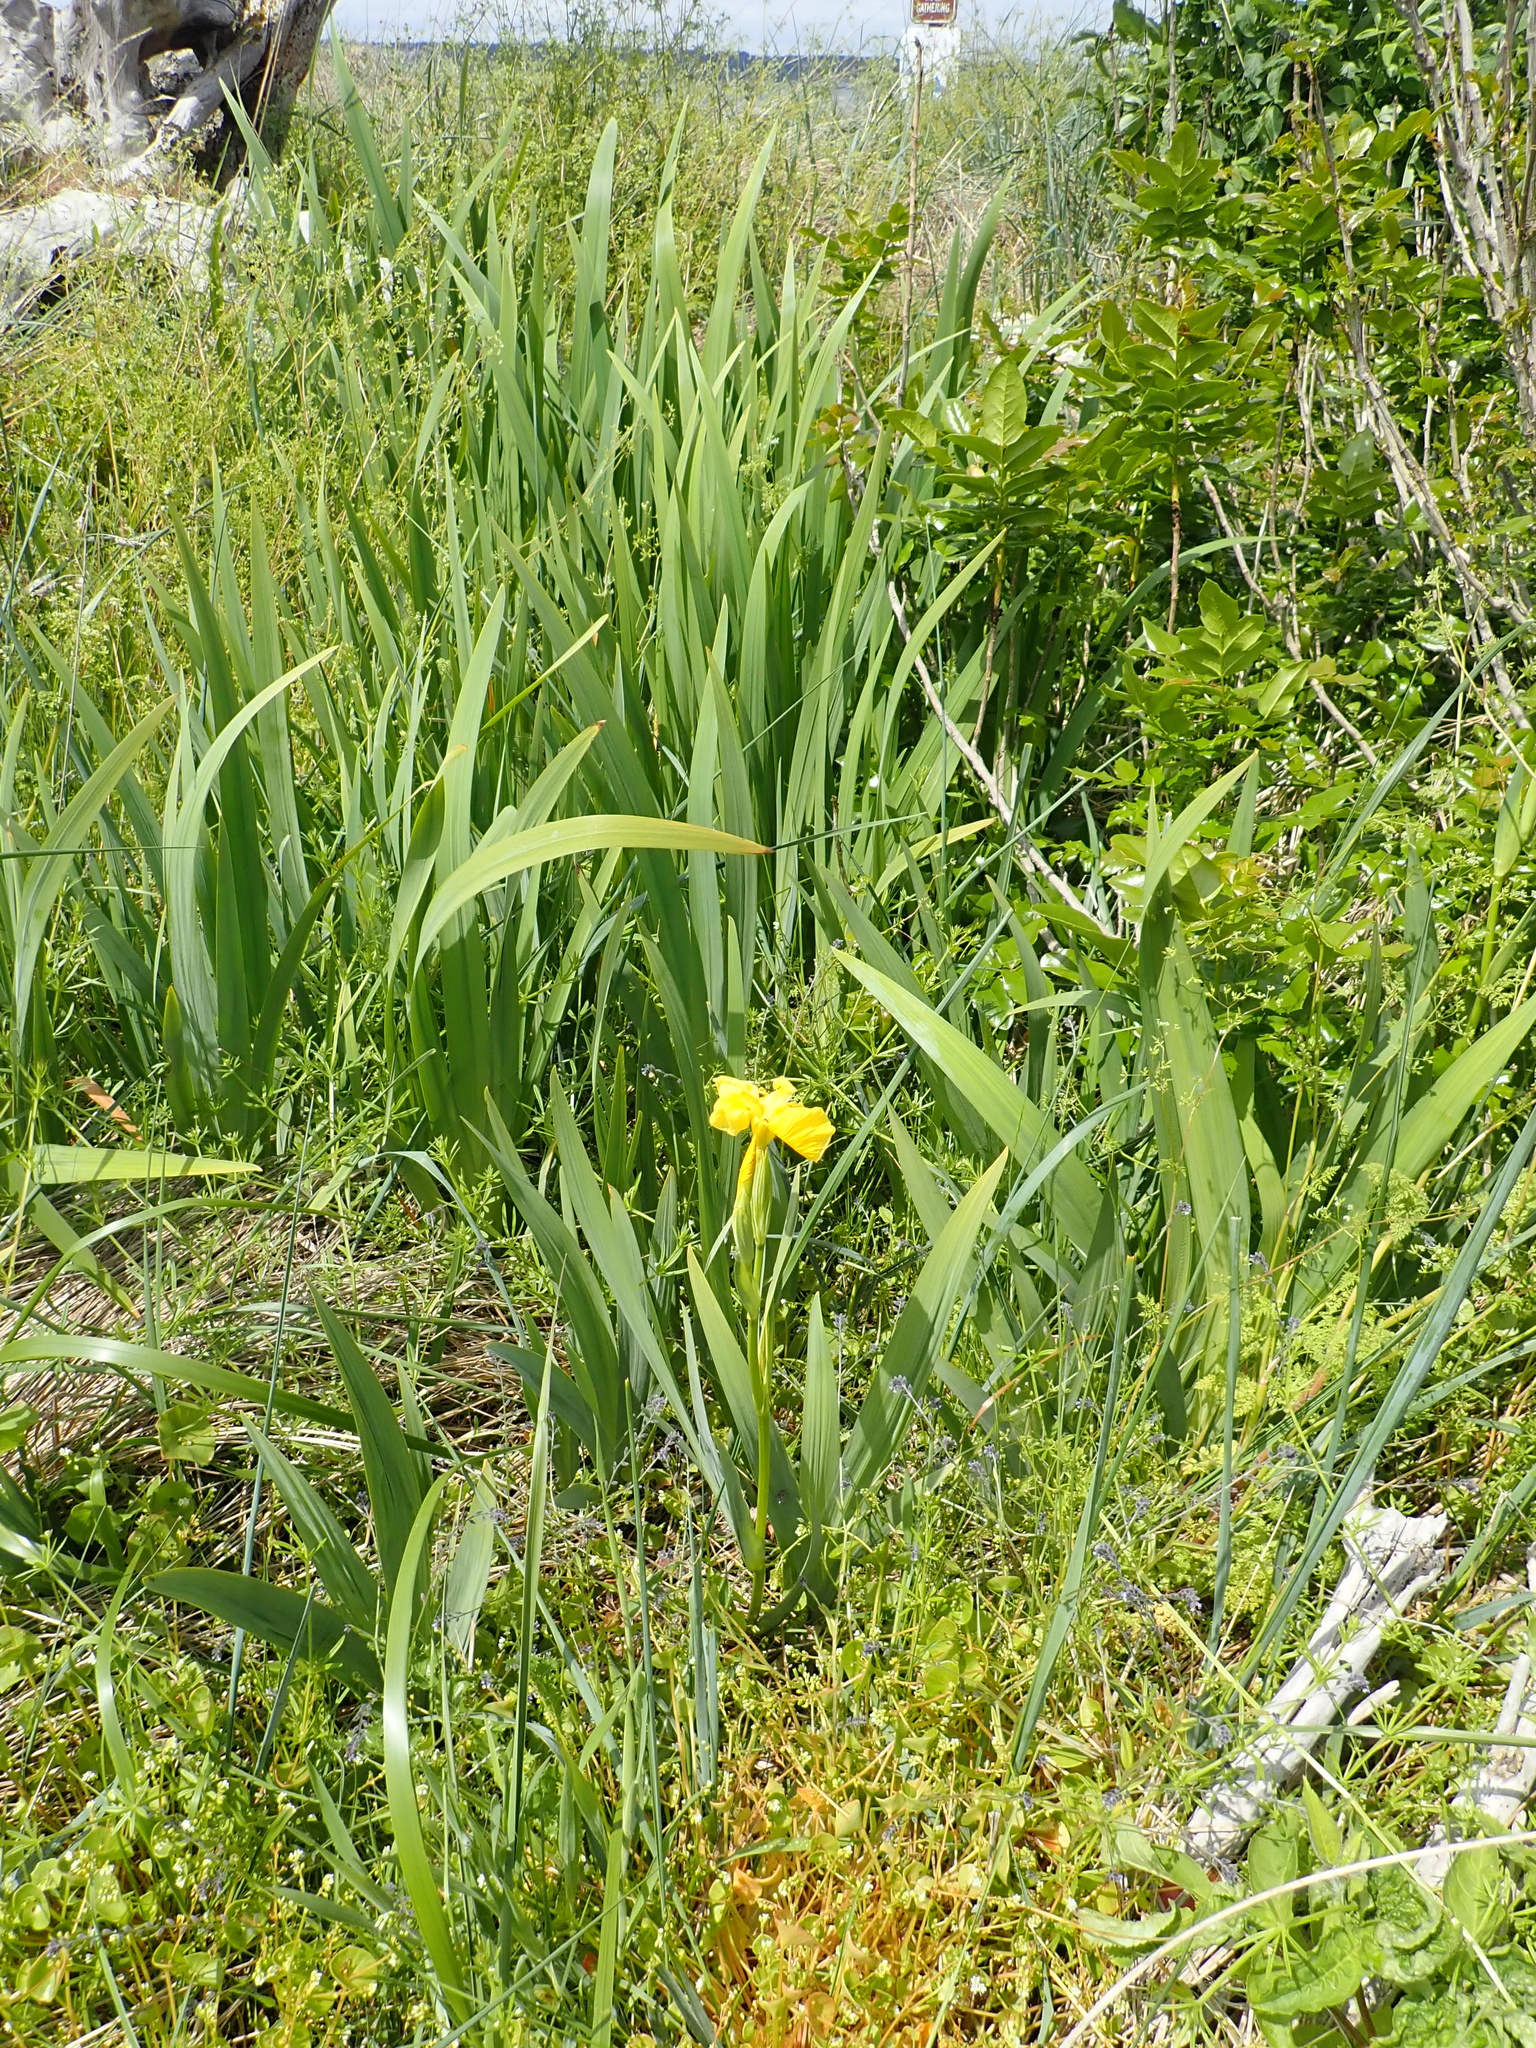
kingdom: Plantae
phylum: Tracheophyta
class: Liliopsida
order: Asparagales
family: Iridaceae
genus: Iris
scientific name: Iris pseudacorus
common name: Yellow flag
